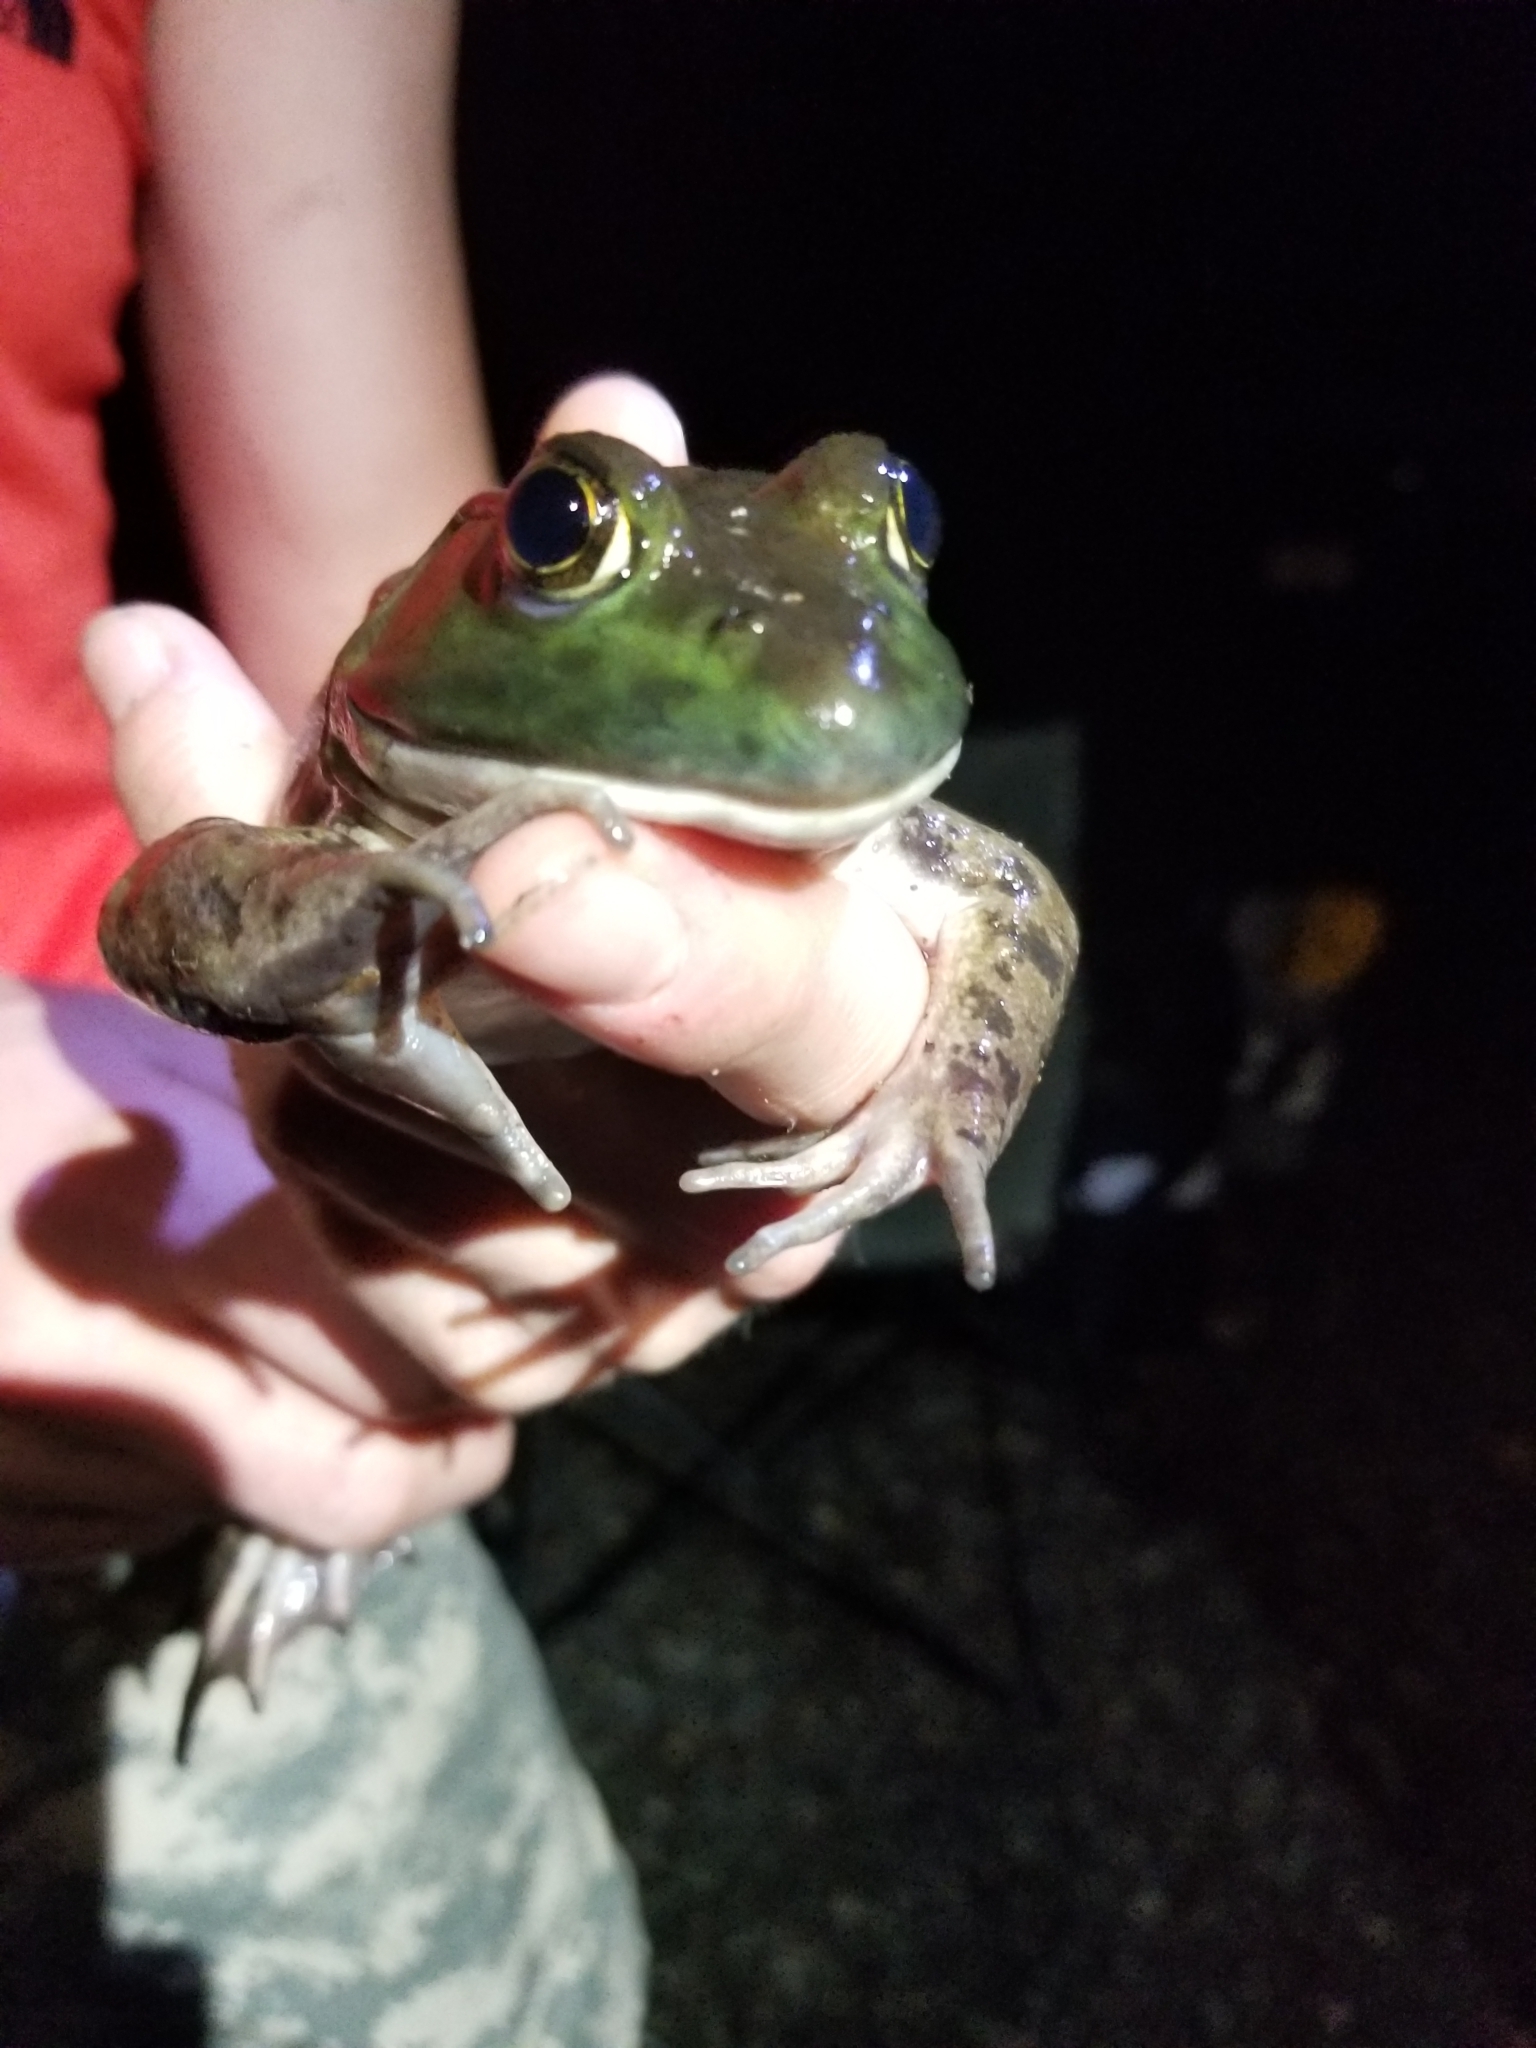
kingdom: Animalia
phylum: Chordata
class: Amphibia
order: Anura
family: Ranidae
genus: Lithobates
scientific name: Lithobates catesbeianus
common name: American bullfrog
